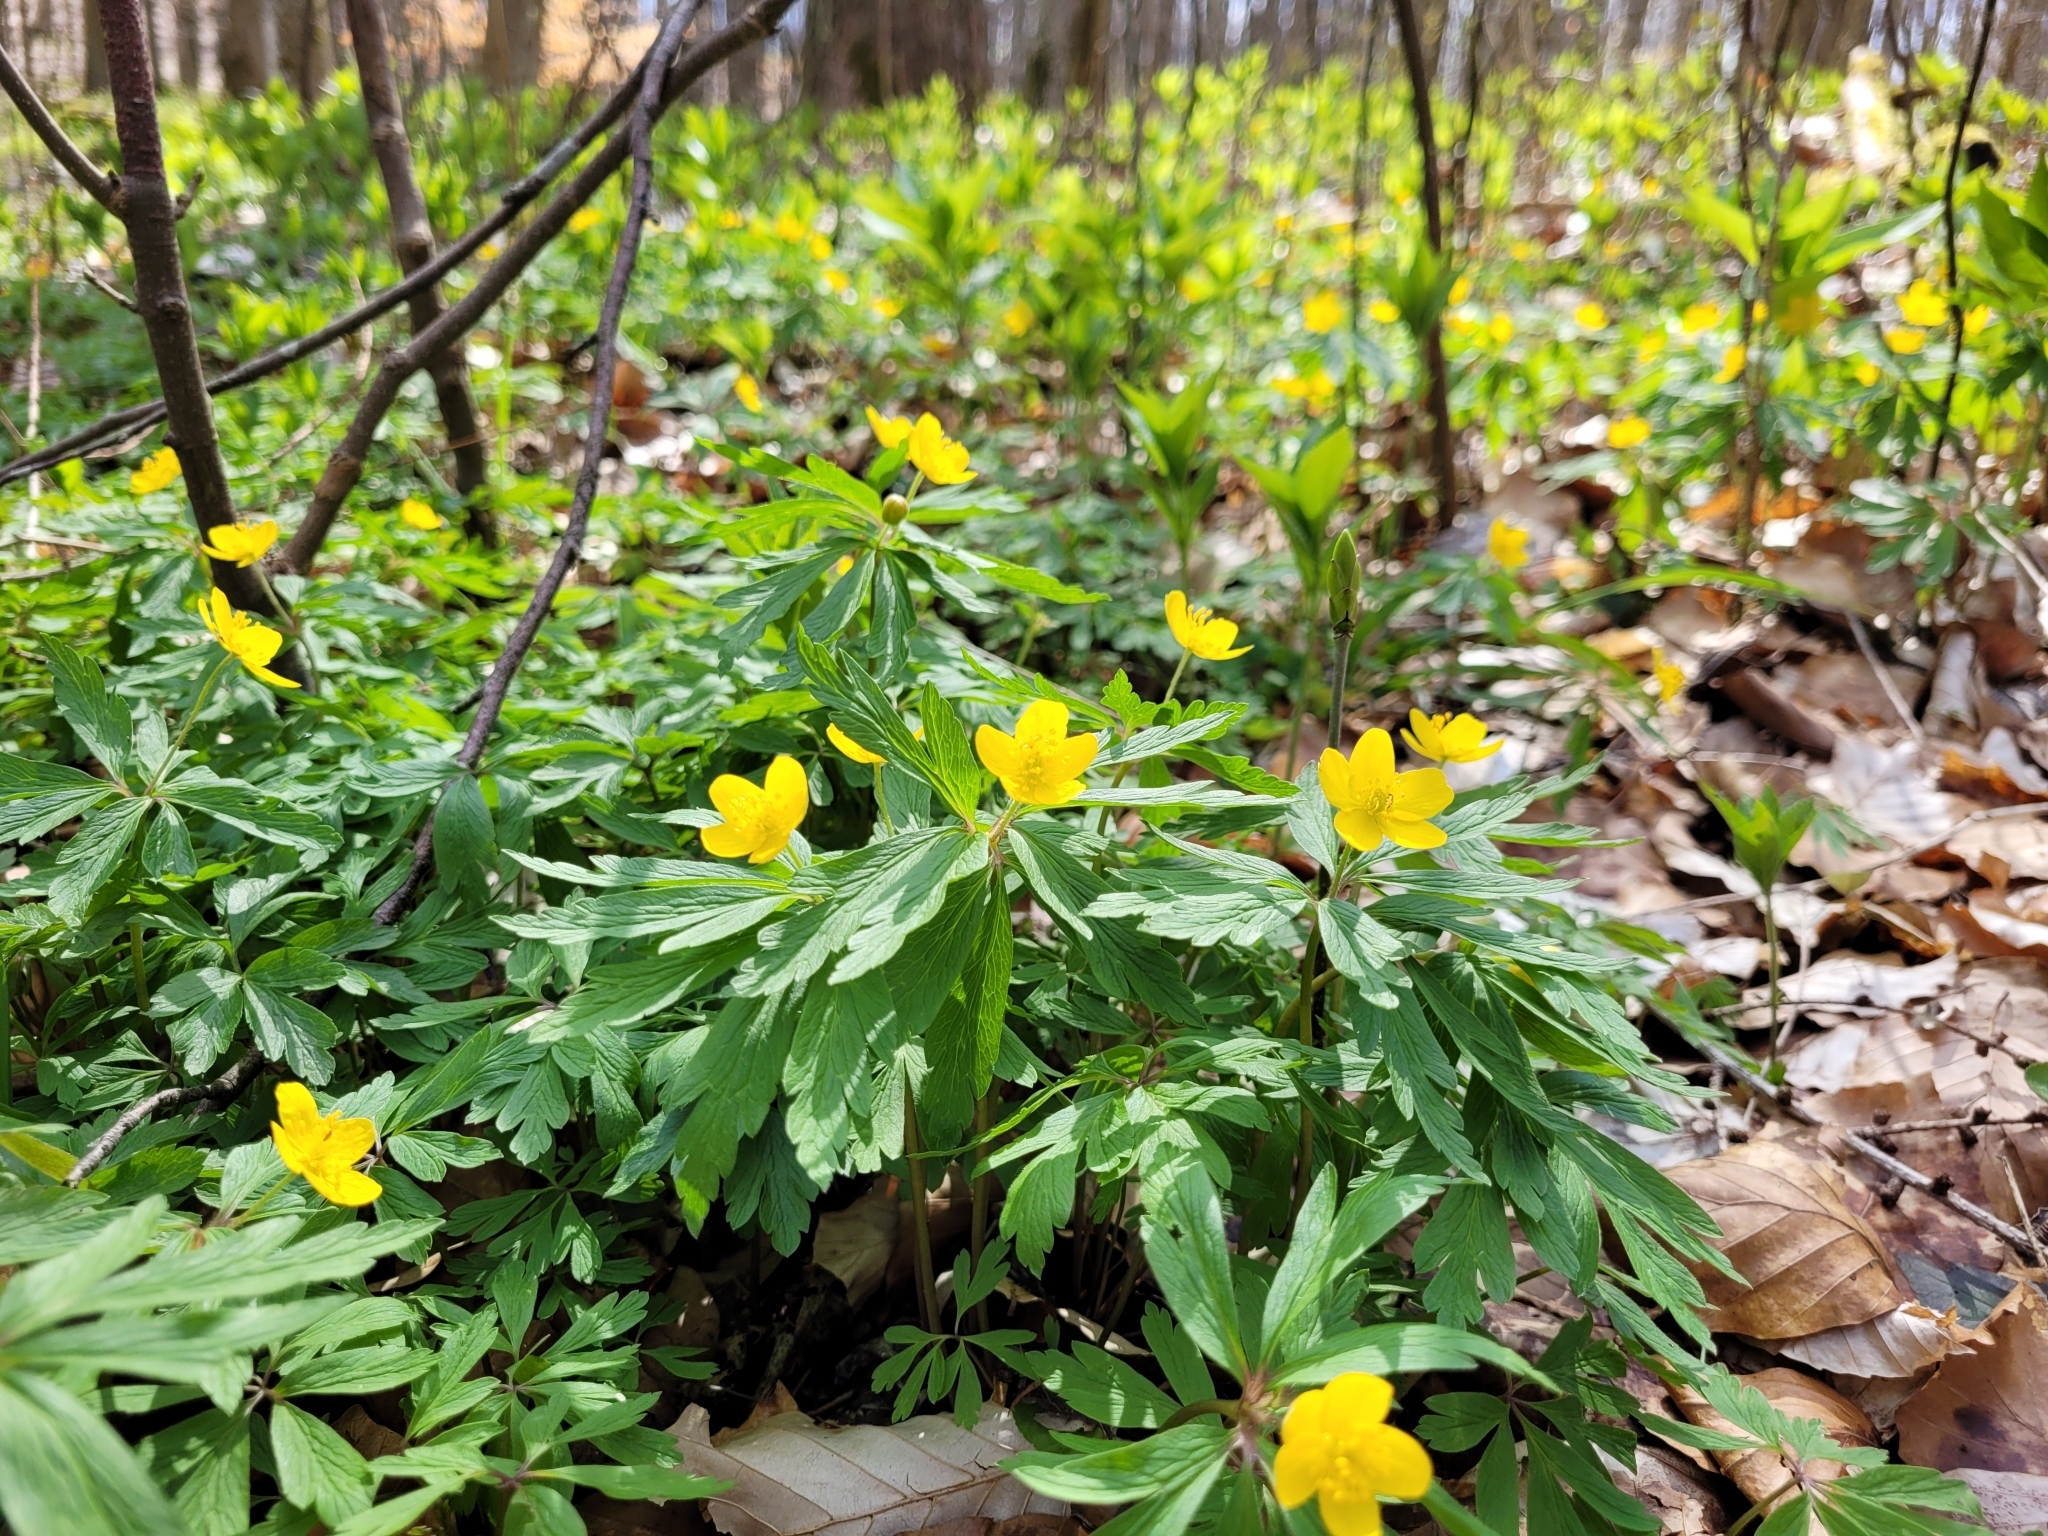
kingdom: Plantae
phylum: Tracheophyta
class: Magnoliopsida
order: Ranunculales
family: Ranunculaceae
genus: Anemone
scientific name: Anemone ranunculoides
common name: Yellow anemone
